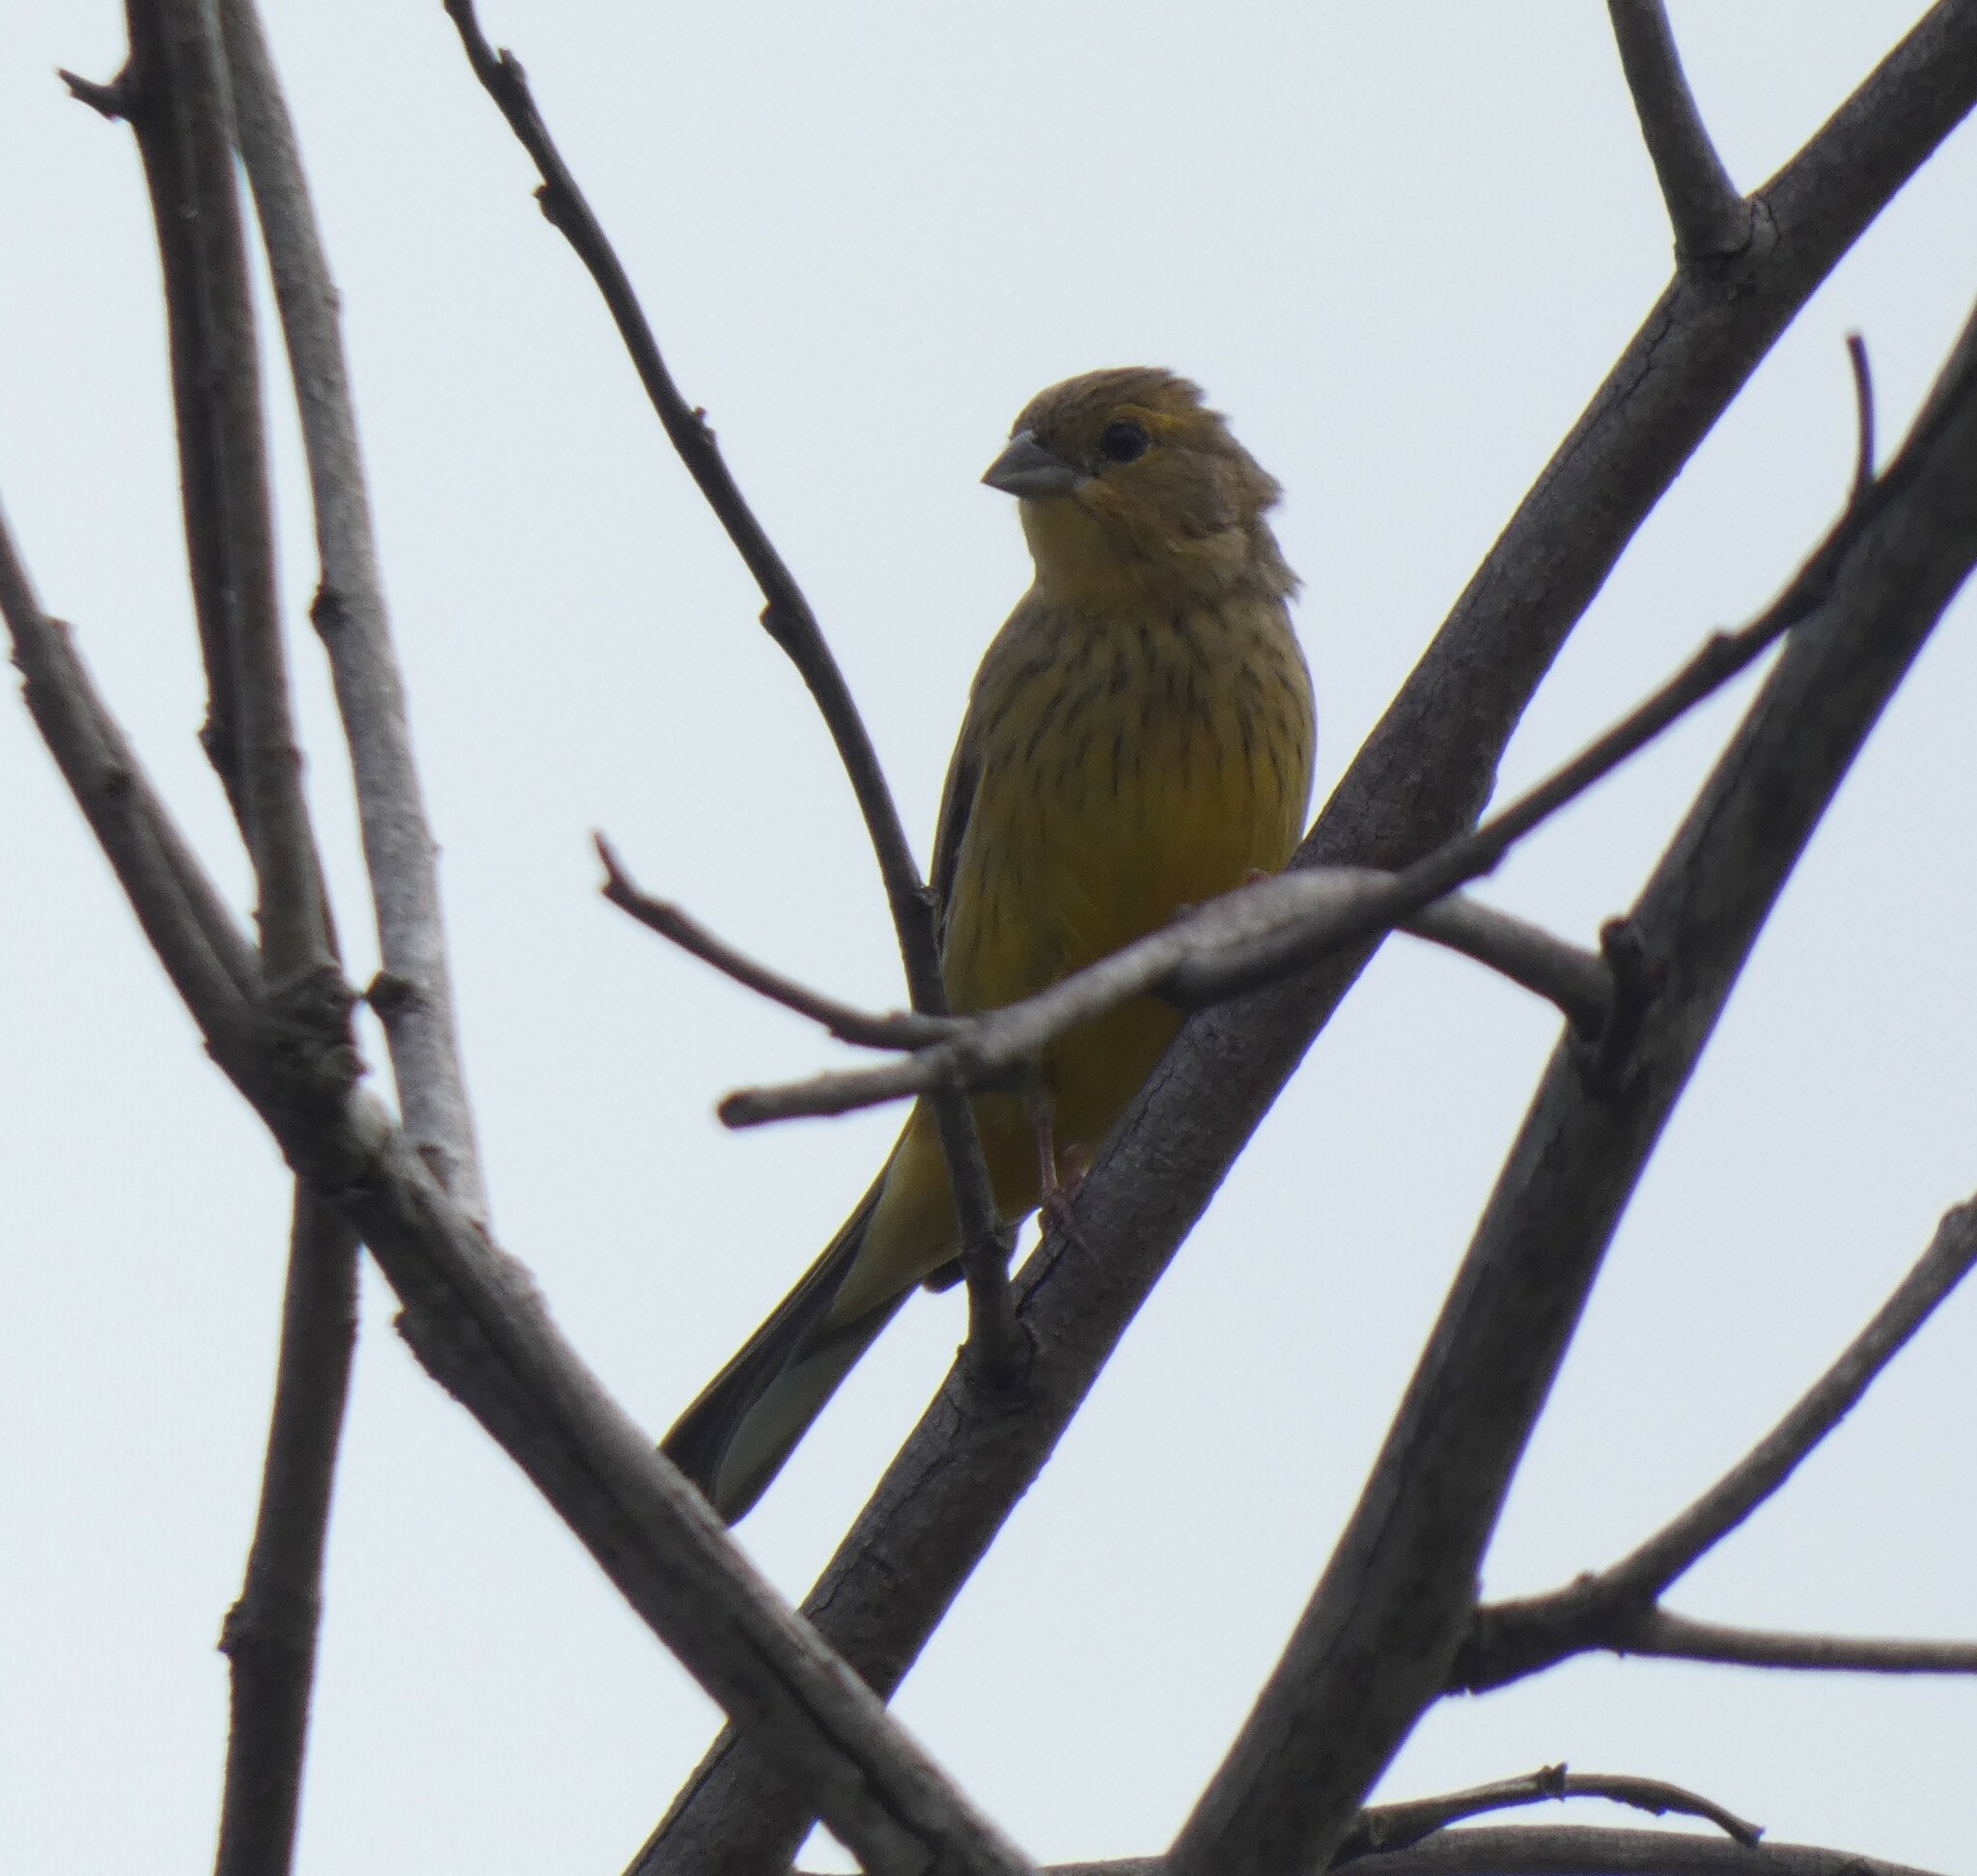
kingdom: Animalia
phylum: Chordata
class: Aves
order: Passeriformes
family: Thraupidae
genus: Sicalis
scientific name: Sicalis citrina
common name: Stripe-tailed yellow finch
